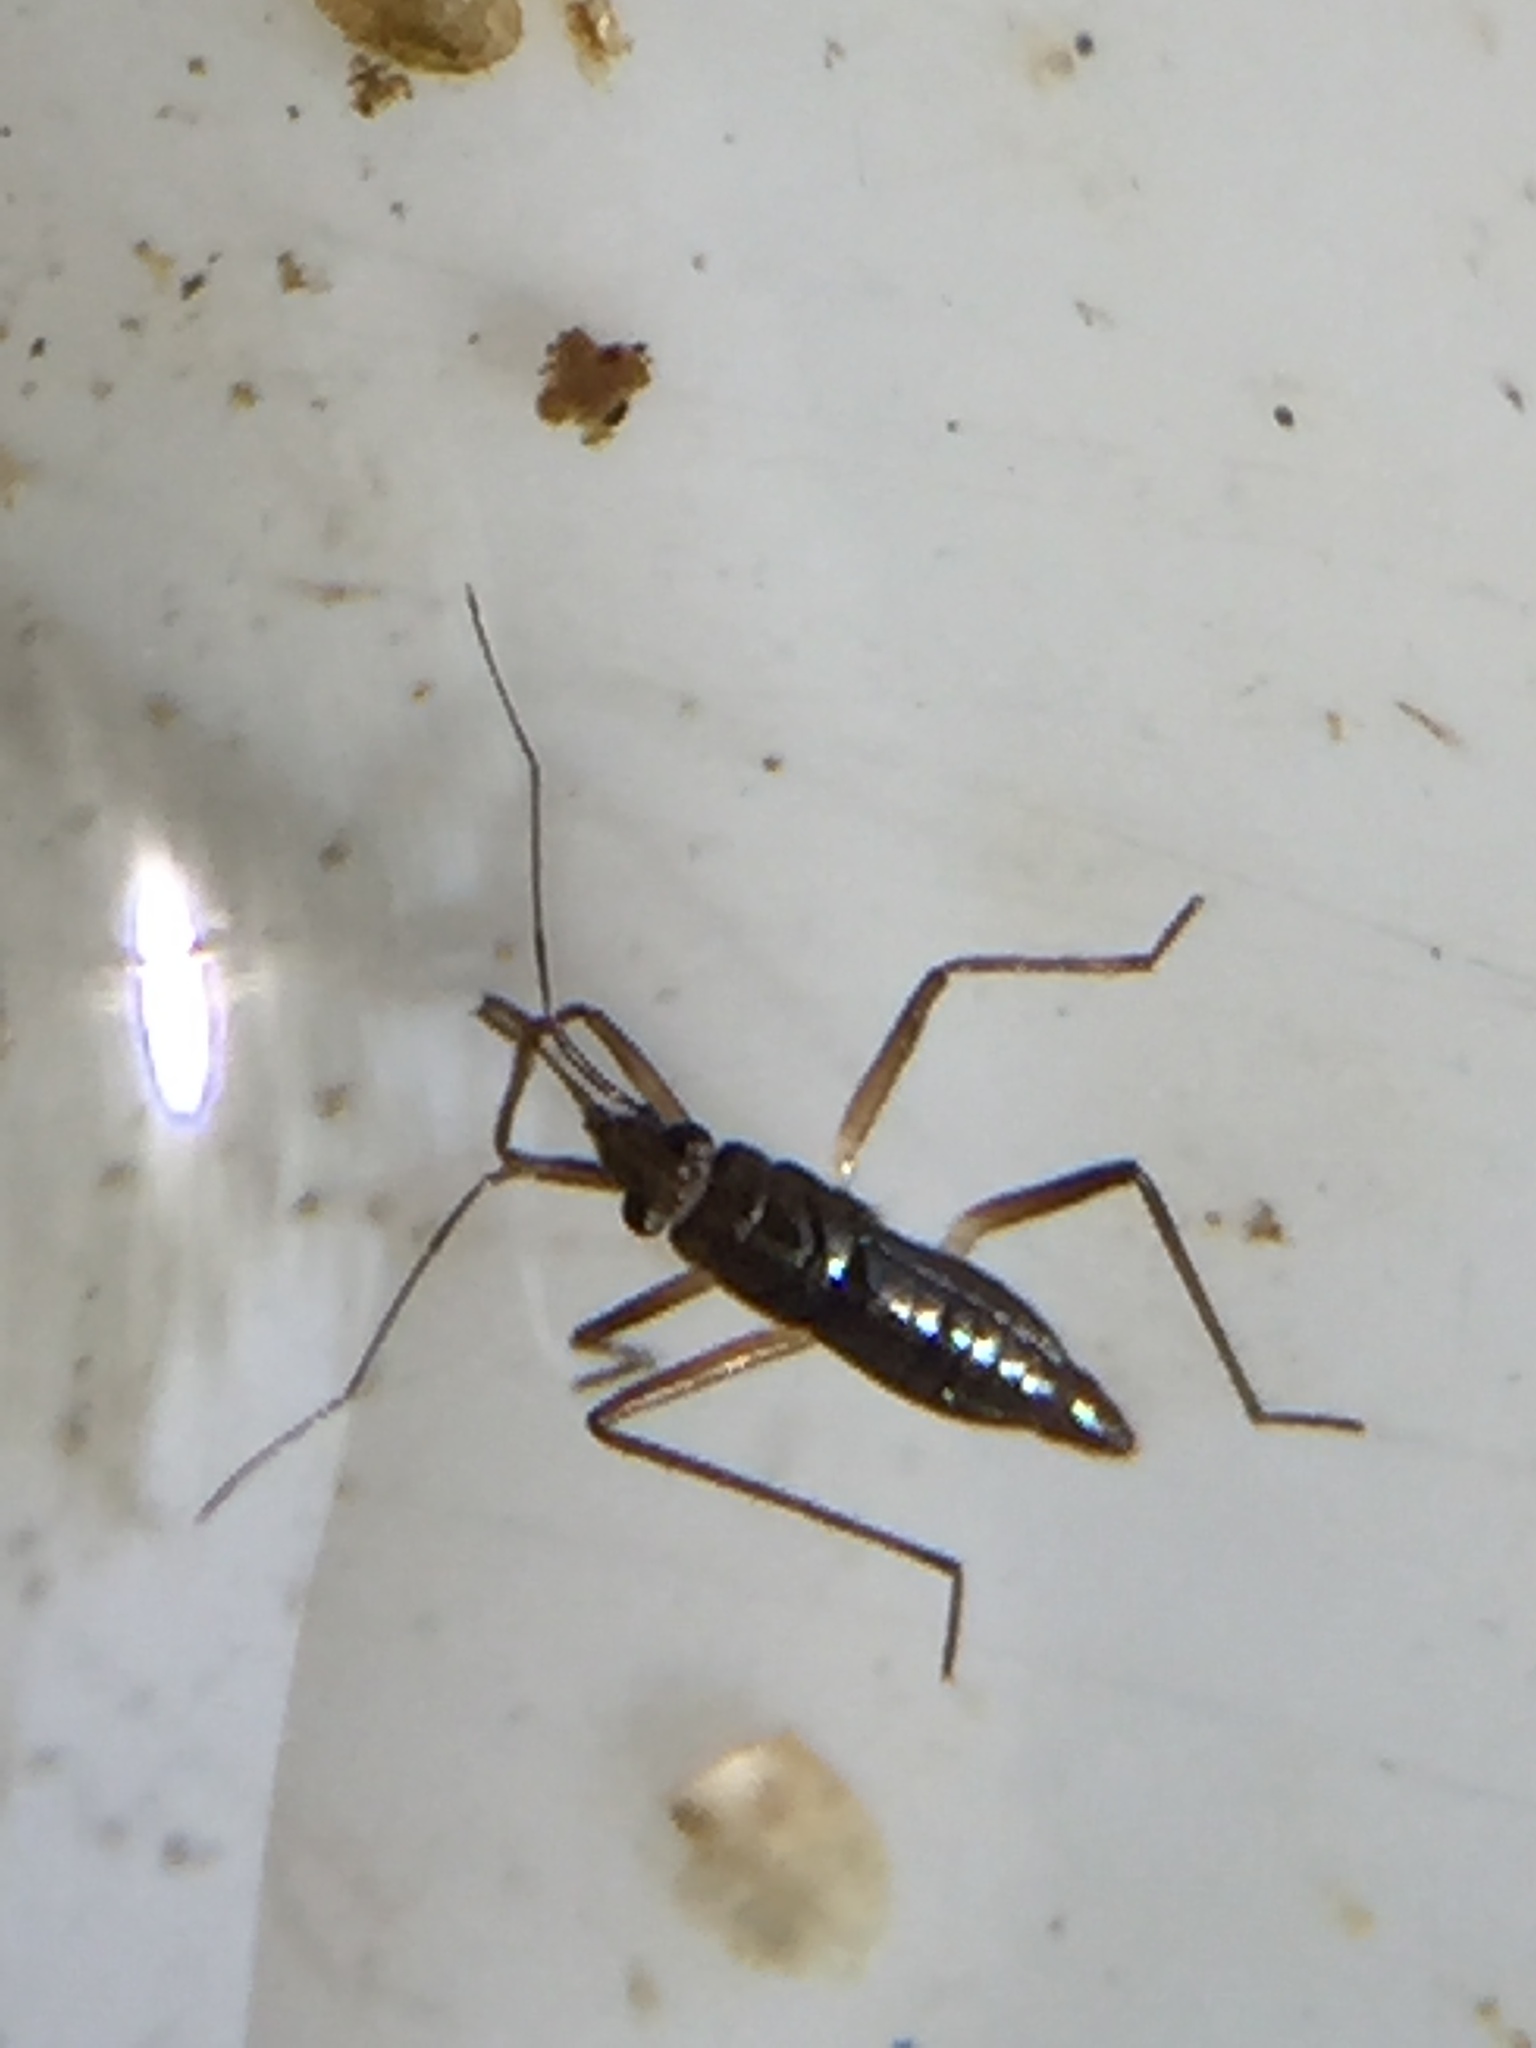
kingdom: Animalia
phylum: Arthropoda
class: Insecta
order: Hemiptera
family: Mesoveliidae
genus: Mesovelia
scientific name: Mesovelia hackeri
